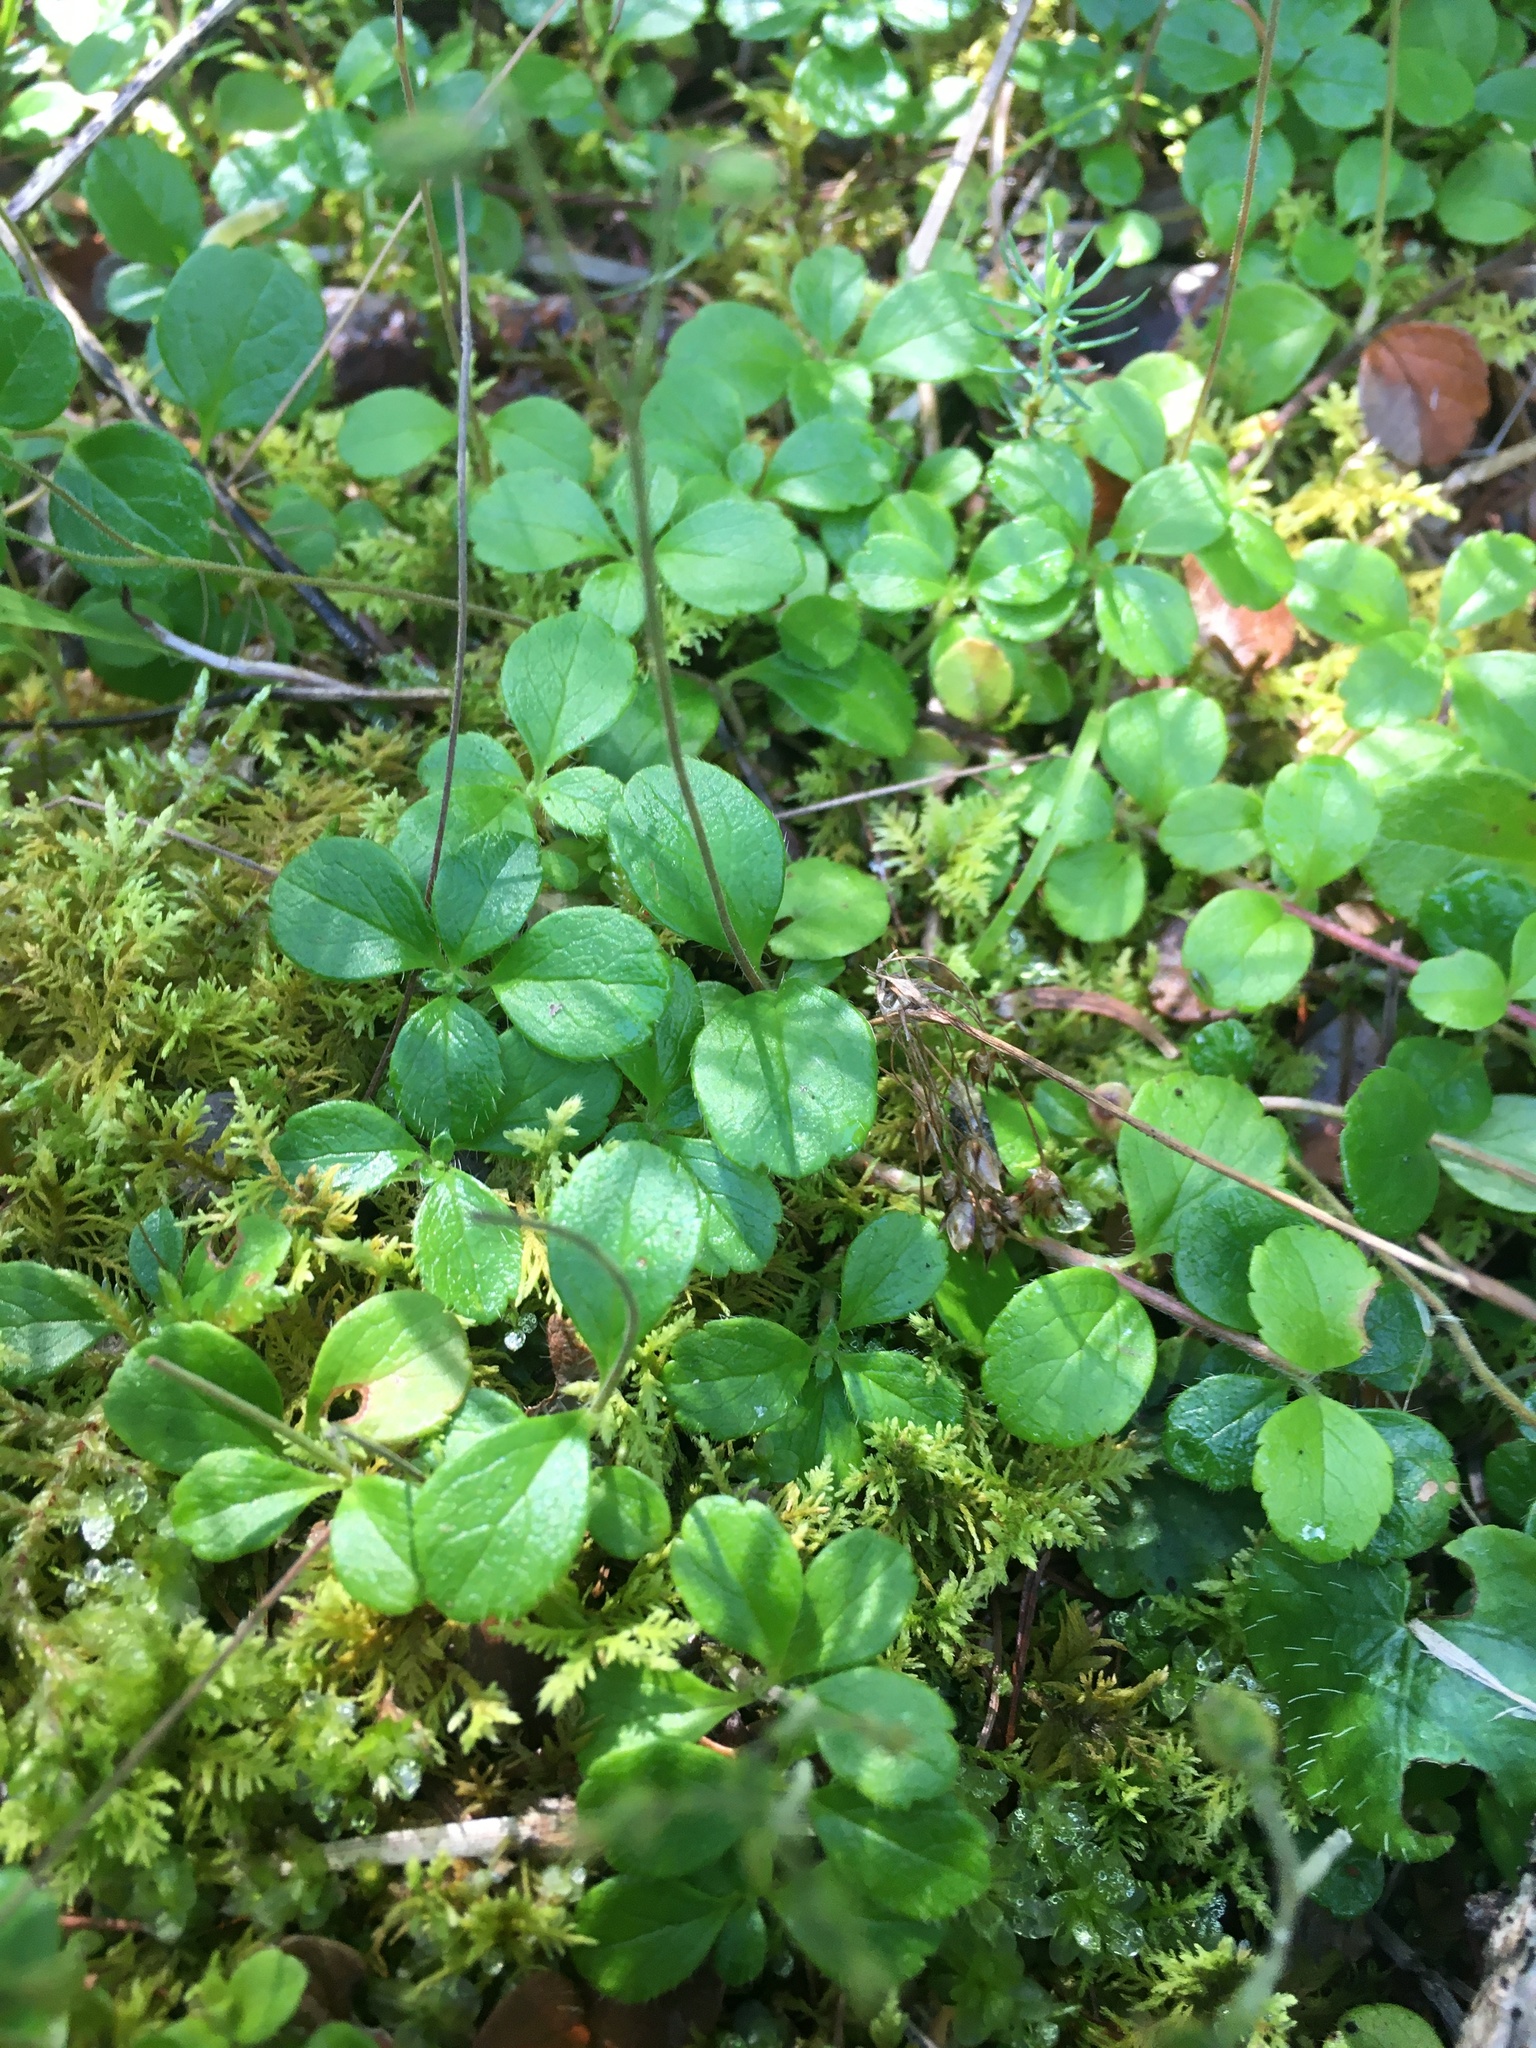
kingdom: Plantae
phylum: Tracheophyta
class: Magnoliopsida
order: Dipsacales
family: Caprifoliaceae
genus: Linnaea
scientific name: Linnaea borealis
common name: Twinflower
